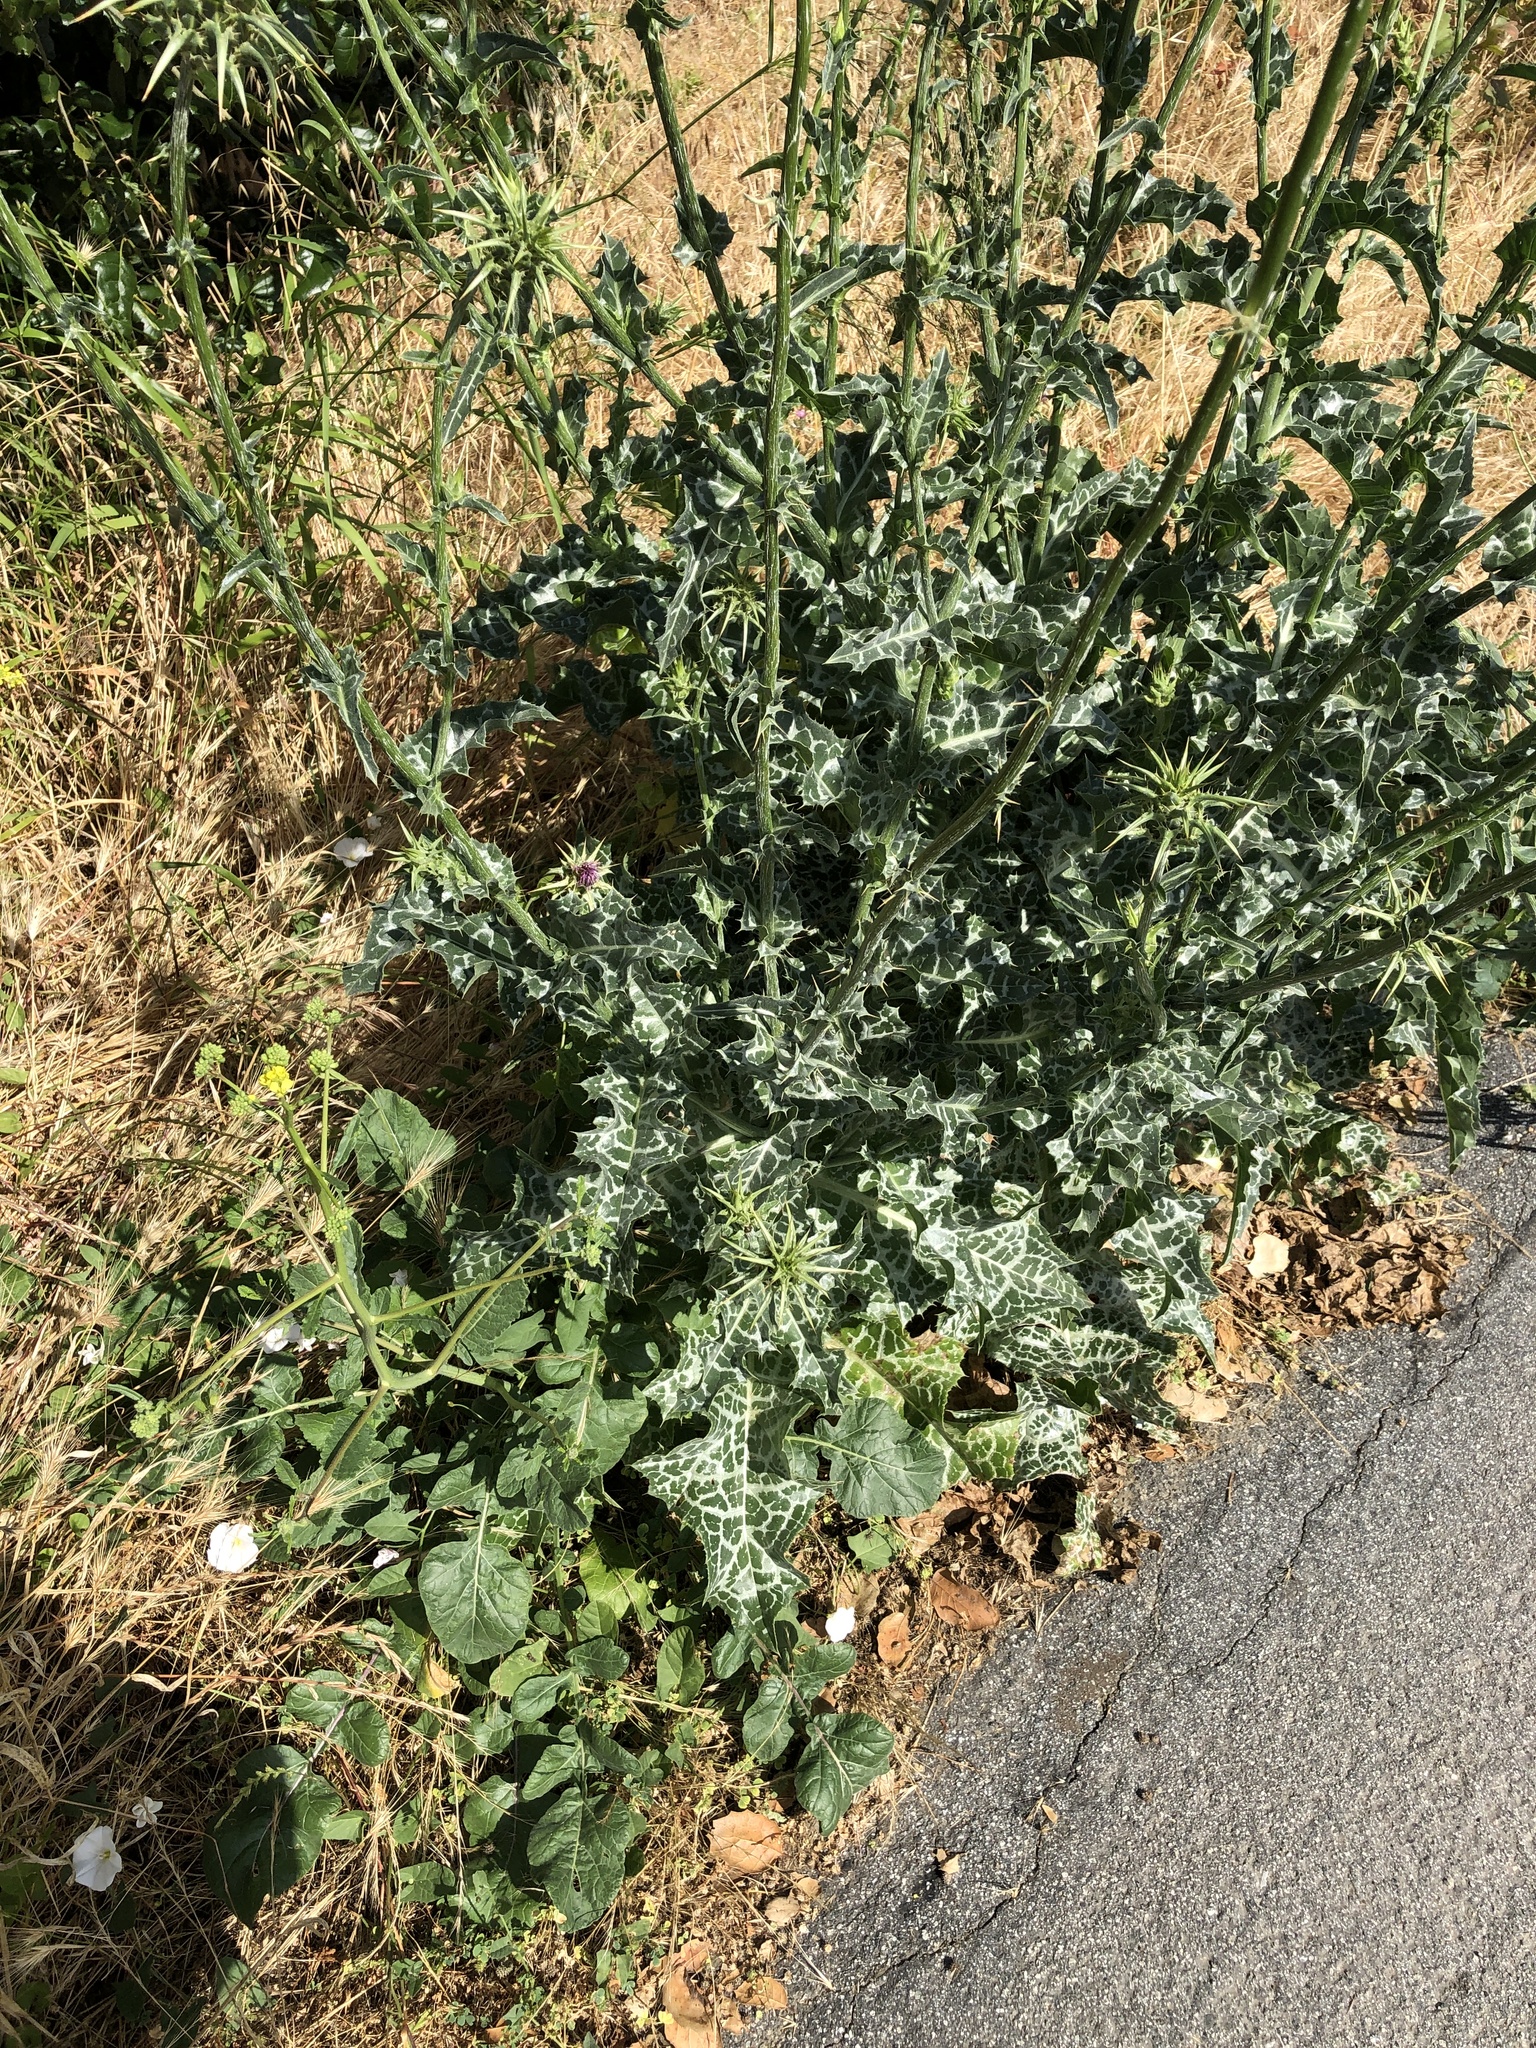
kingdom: Plantae
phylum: Tracheophyta
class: Magnoliopsida
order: Asterales
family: Asteraceae
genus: Silybum
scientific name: Silybum marianum
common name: Milk thistle
